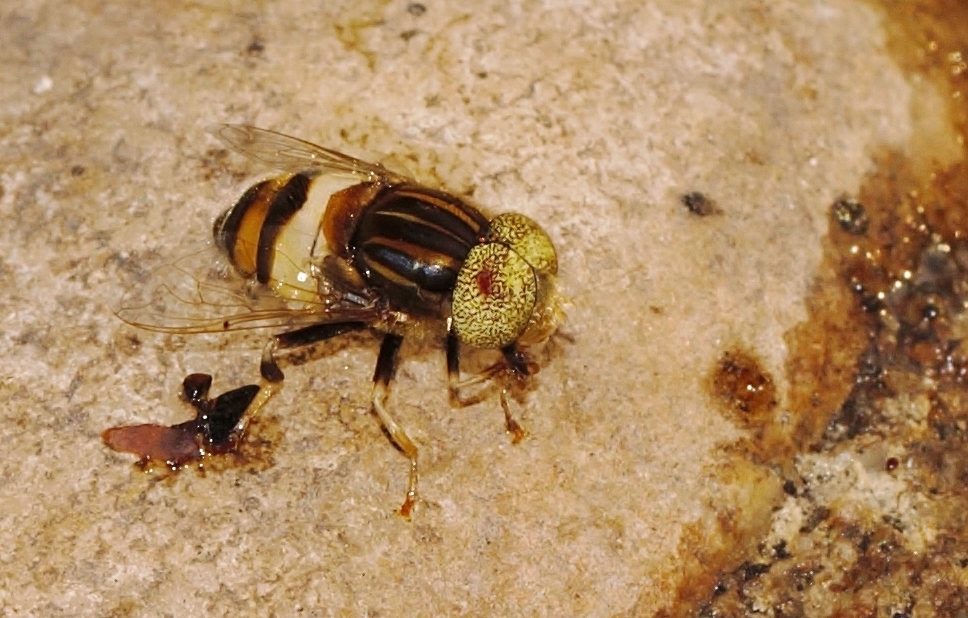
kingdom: Animalia
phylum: Arthropoda
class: Insecta
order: Diptera
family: Syrphidae
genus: Eristalinus
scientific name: Eristalinus flaveolus
